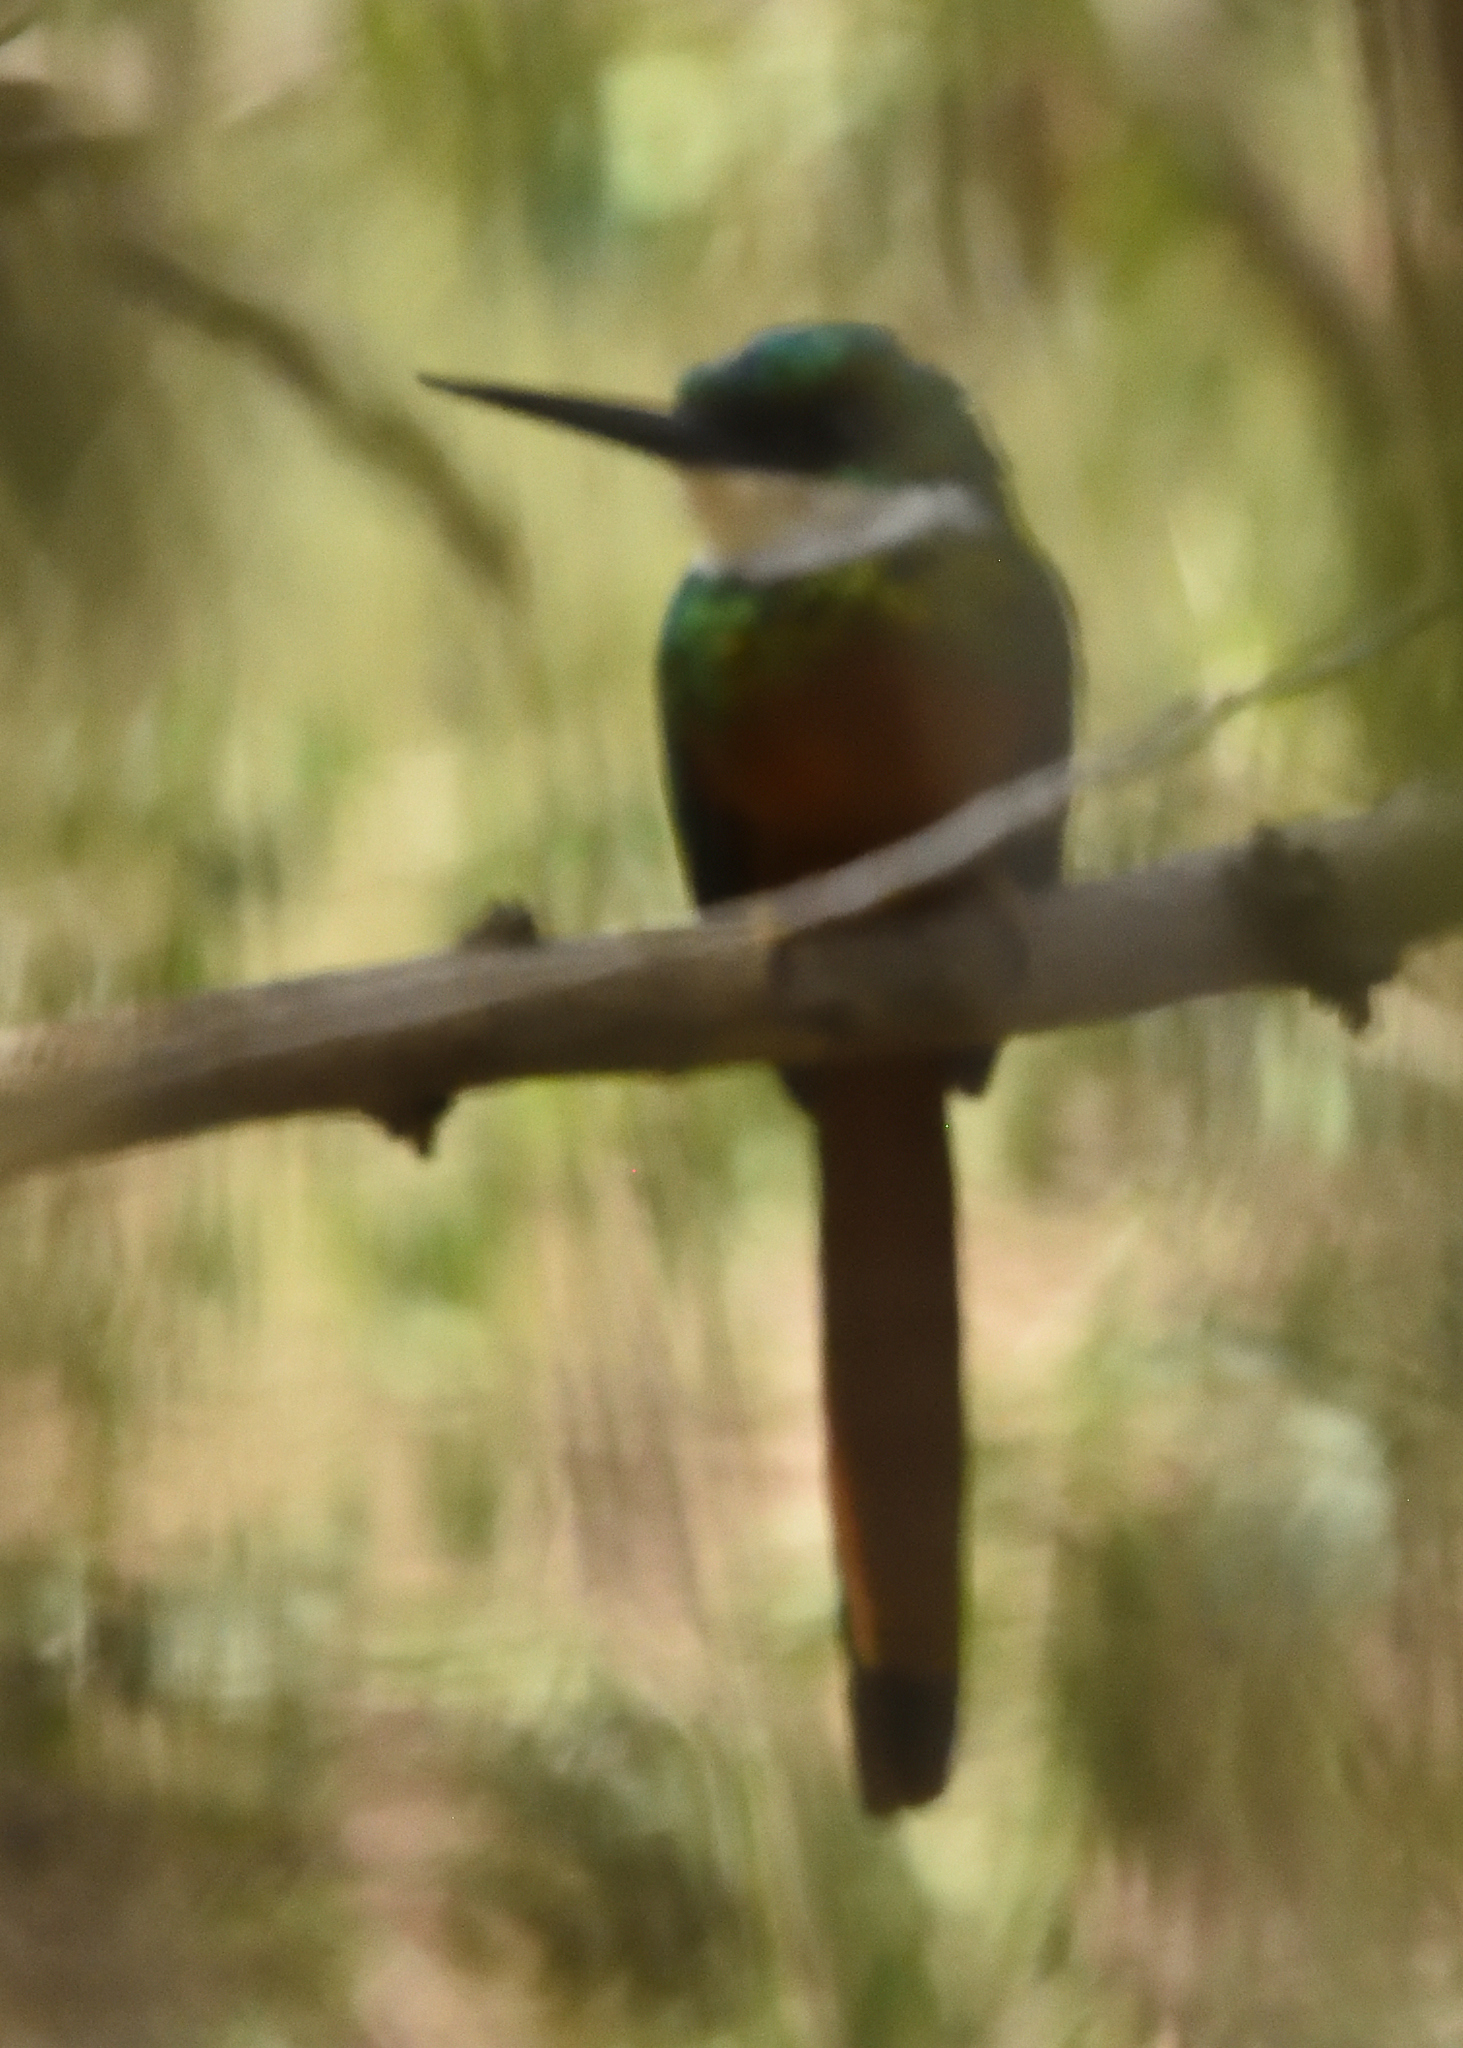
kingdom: Animalia
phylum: Chordata
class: Aves
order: Piciformes
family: Galbulidae
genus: Galbula
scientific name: Galbula ruficauda
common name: Rufous-tailed jacamar
